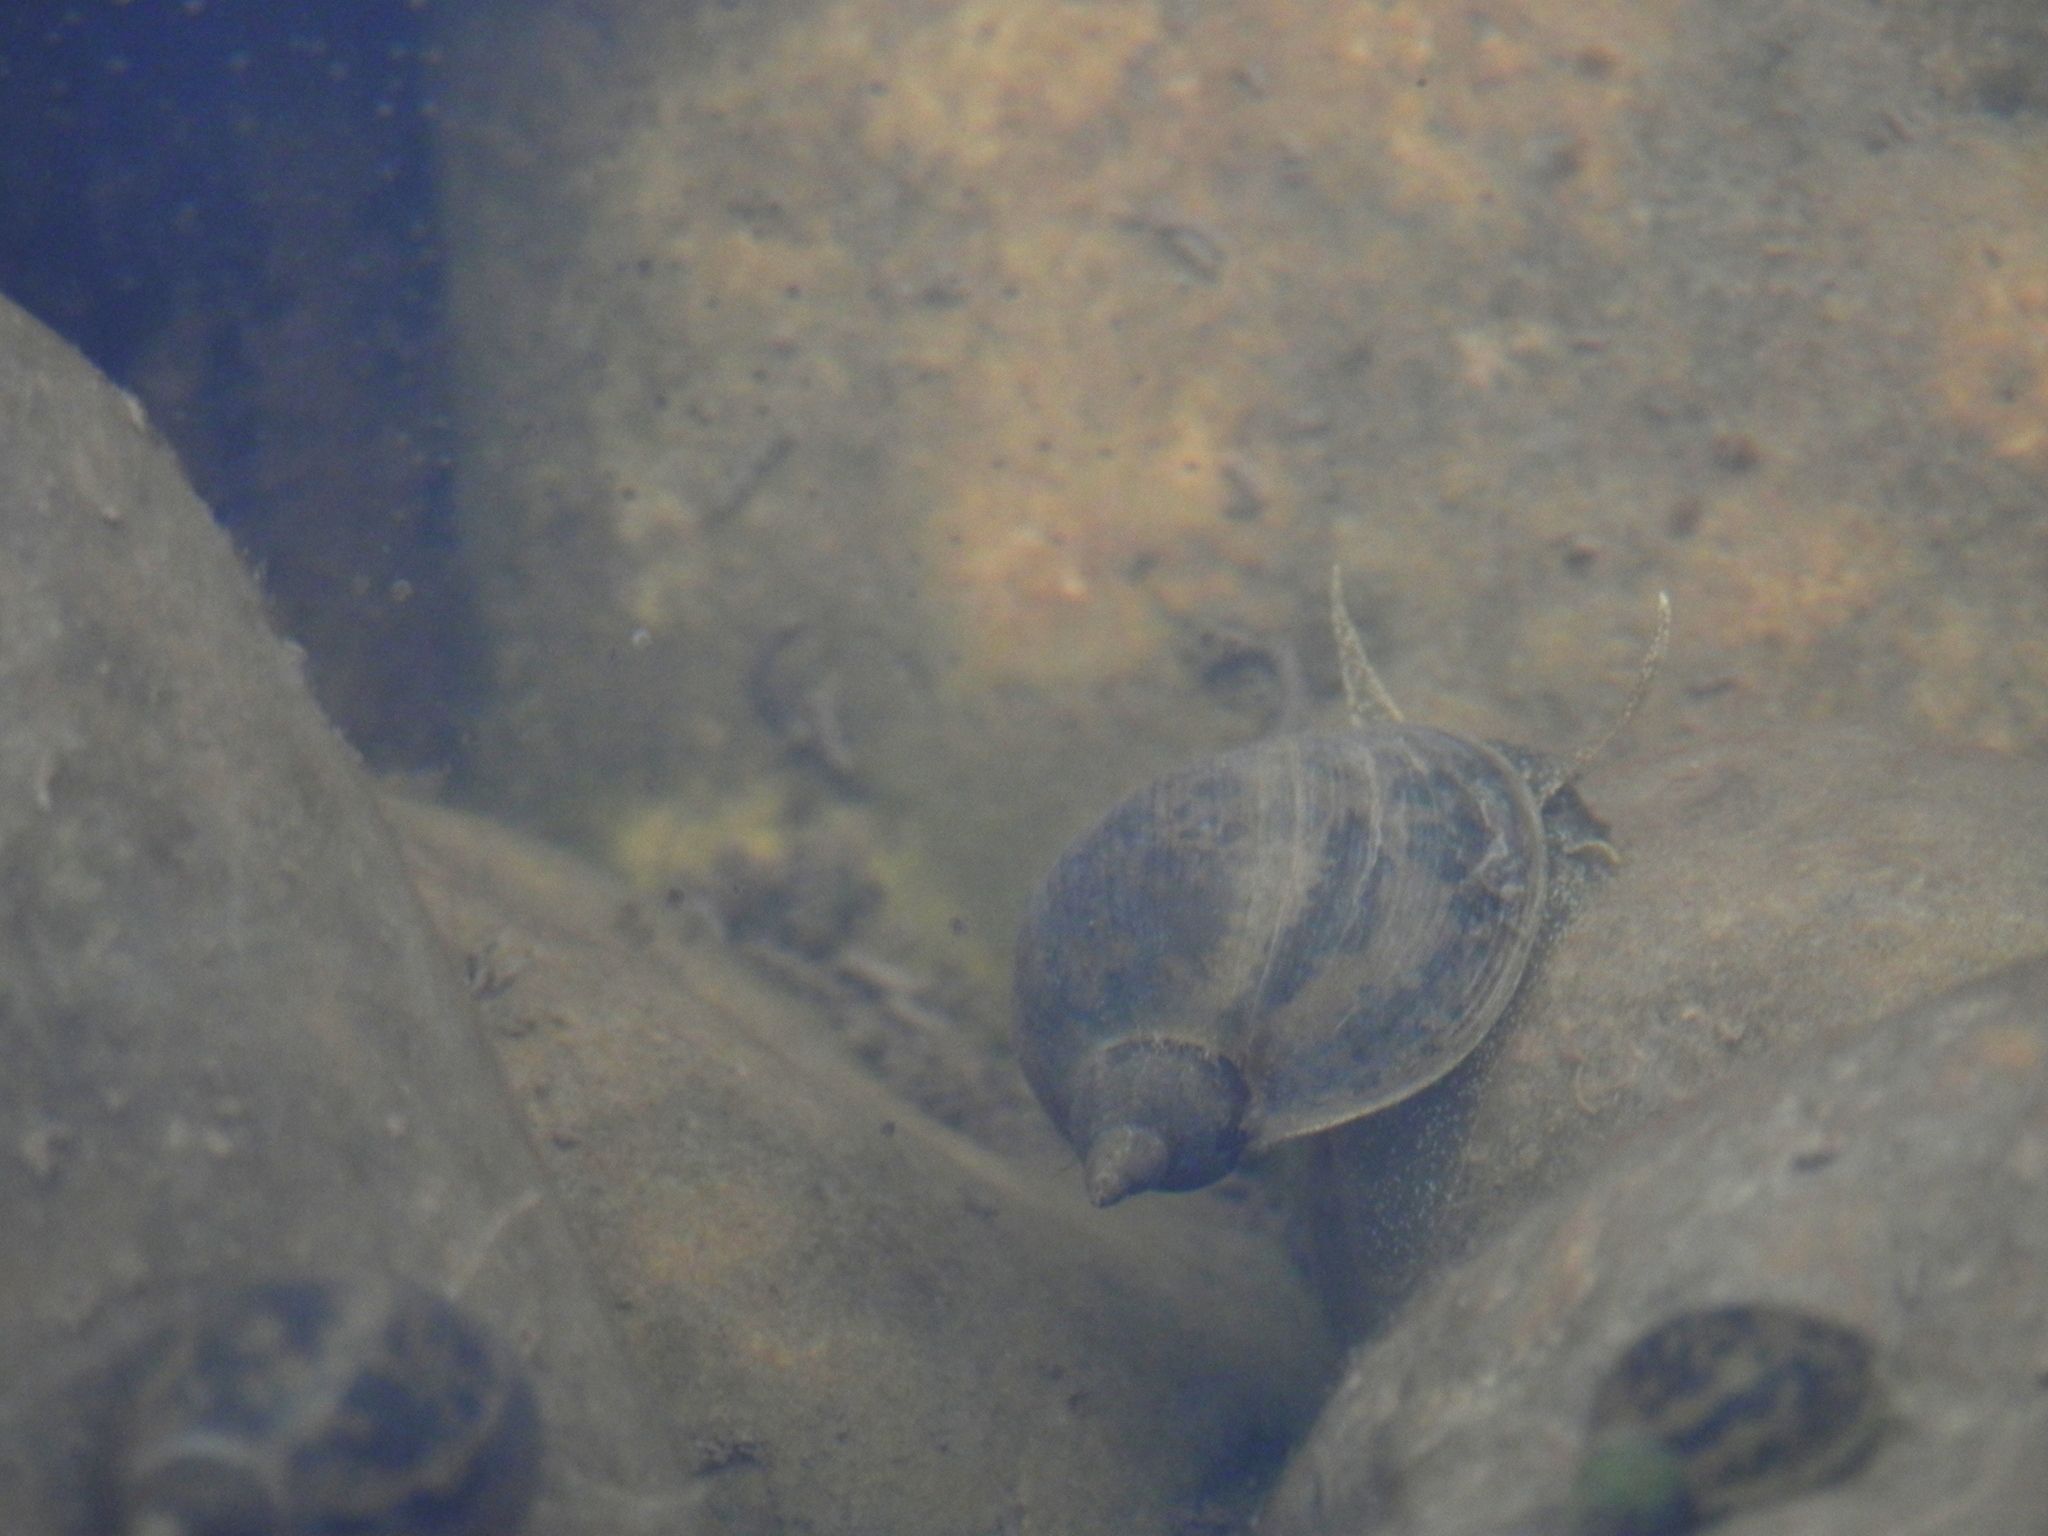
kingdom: Animalia
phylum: Mollusca
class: Gastropoda
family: Lymnaeidae
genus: Radix
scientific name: Radix auricularia
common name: Ear pond snail
